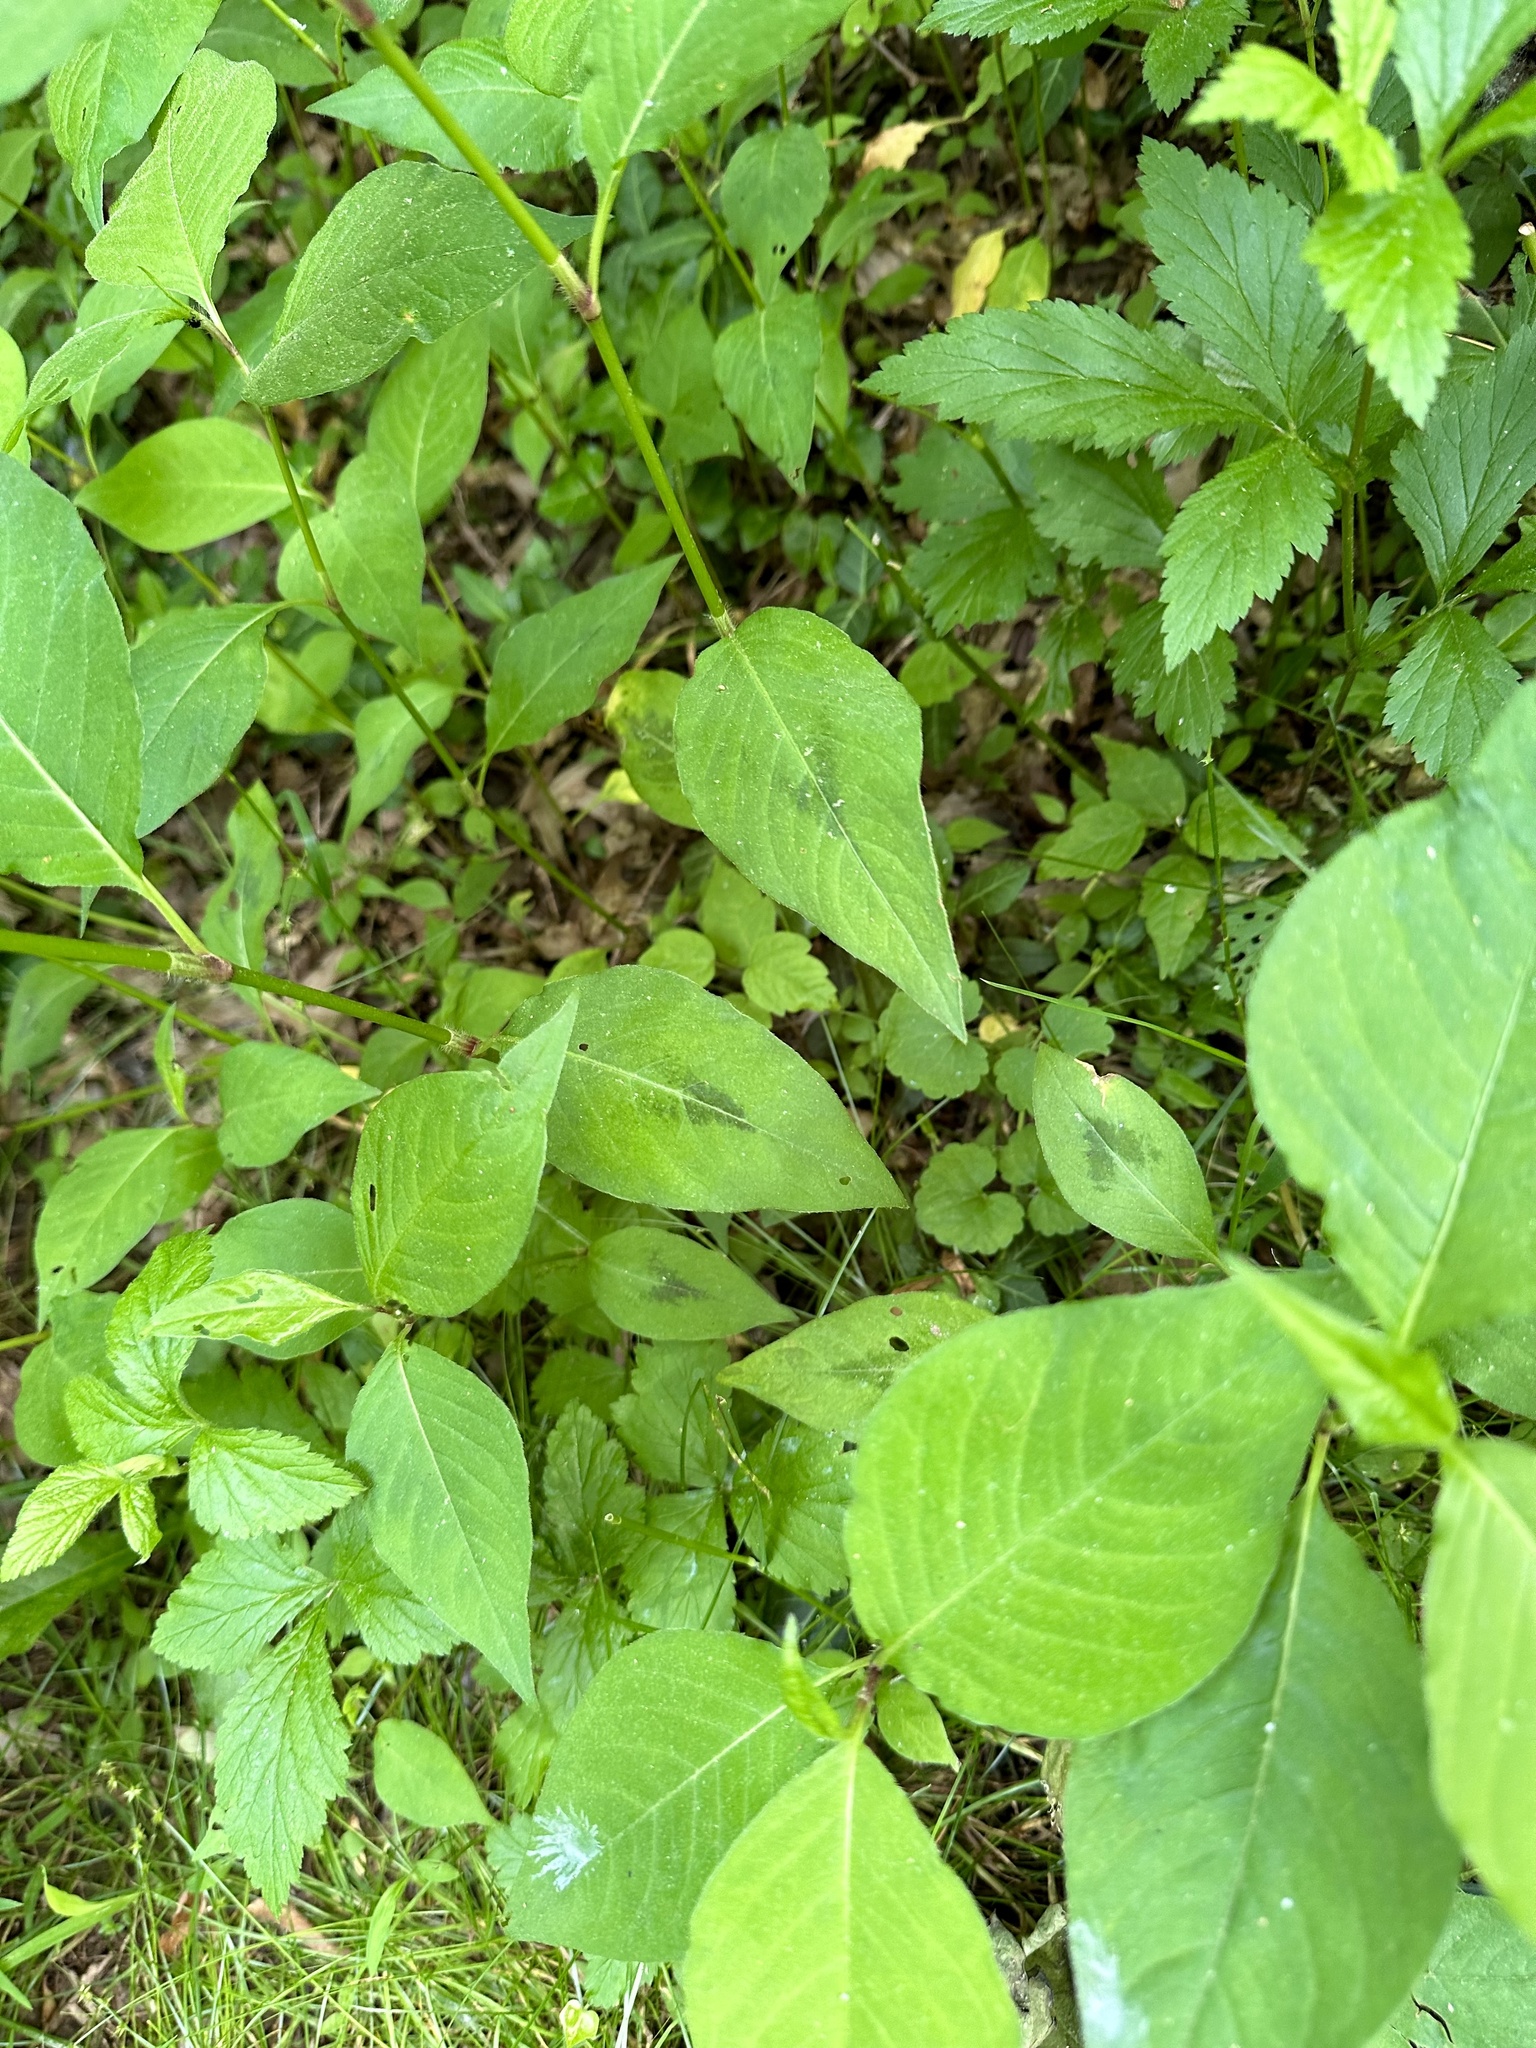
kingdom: Plantae
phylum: Tracheophyta
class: Magnoliopsida
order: Caryophyllales
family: Polygonaceae
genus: Persicaria
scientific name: Persicaria virginiana
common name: Jumpseed
